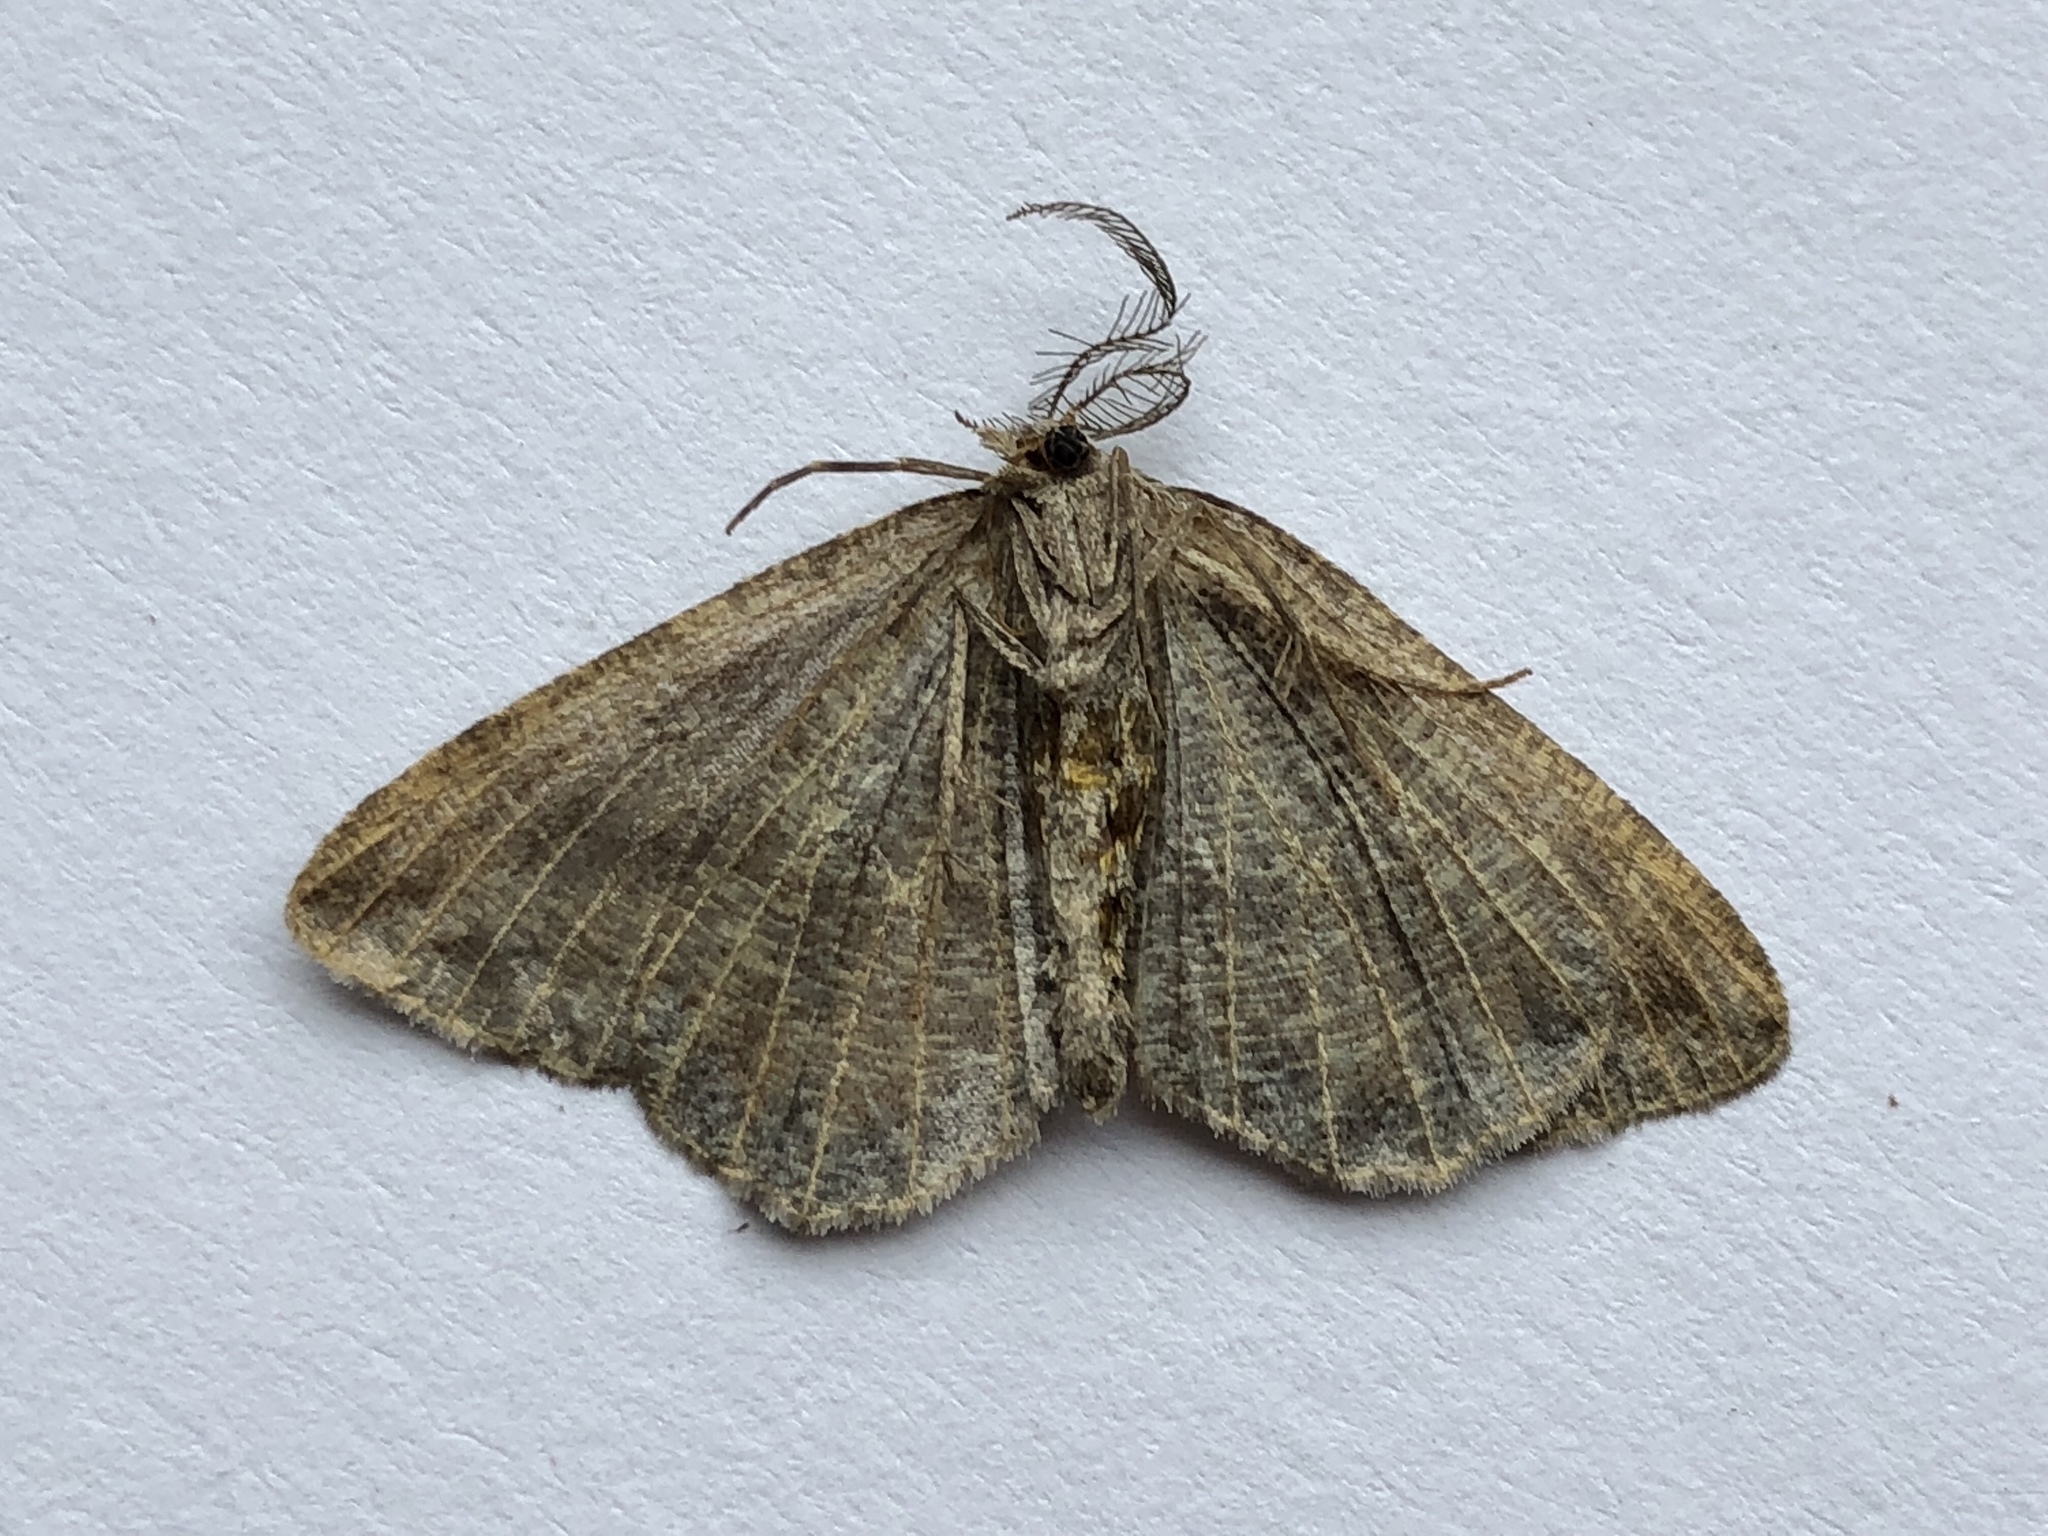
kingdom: Animalia
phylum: Arthropoda
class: Insecta
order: Lepidoptera
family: Geometridae
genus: Macaria
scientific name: Macaria loricaria
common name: False bruce spanworm
